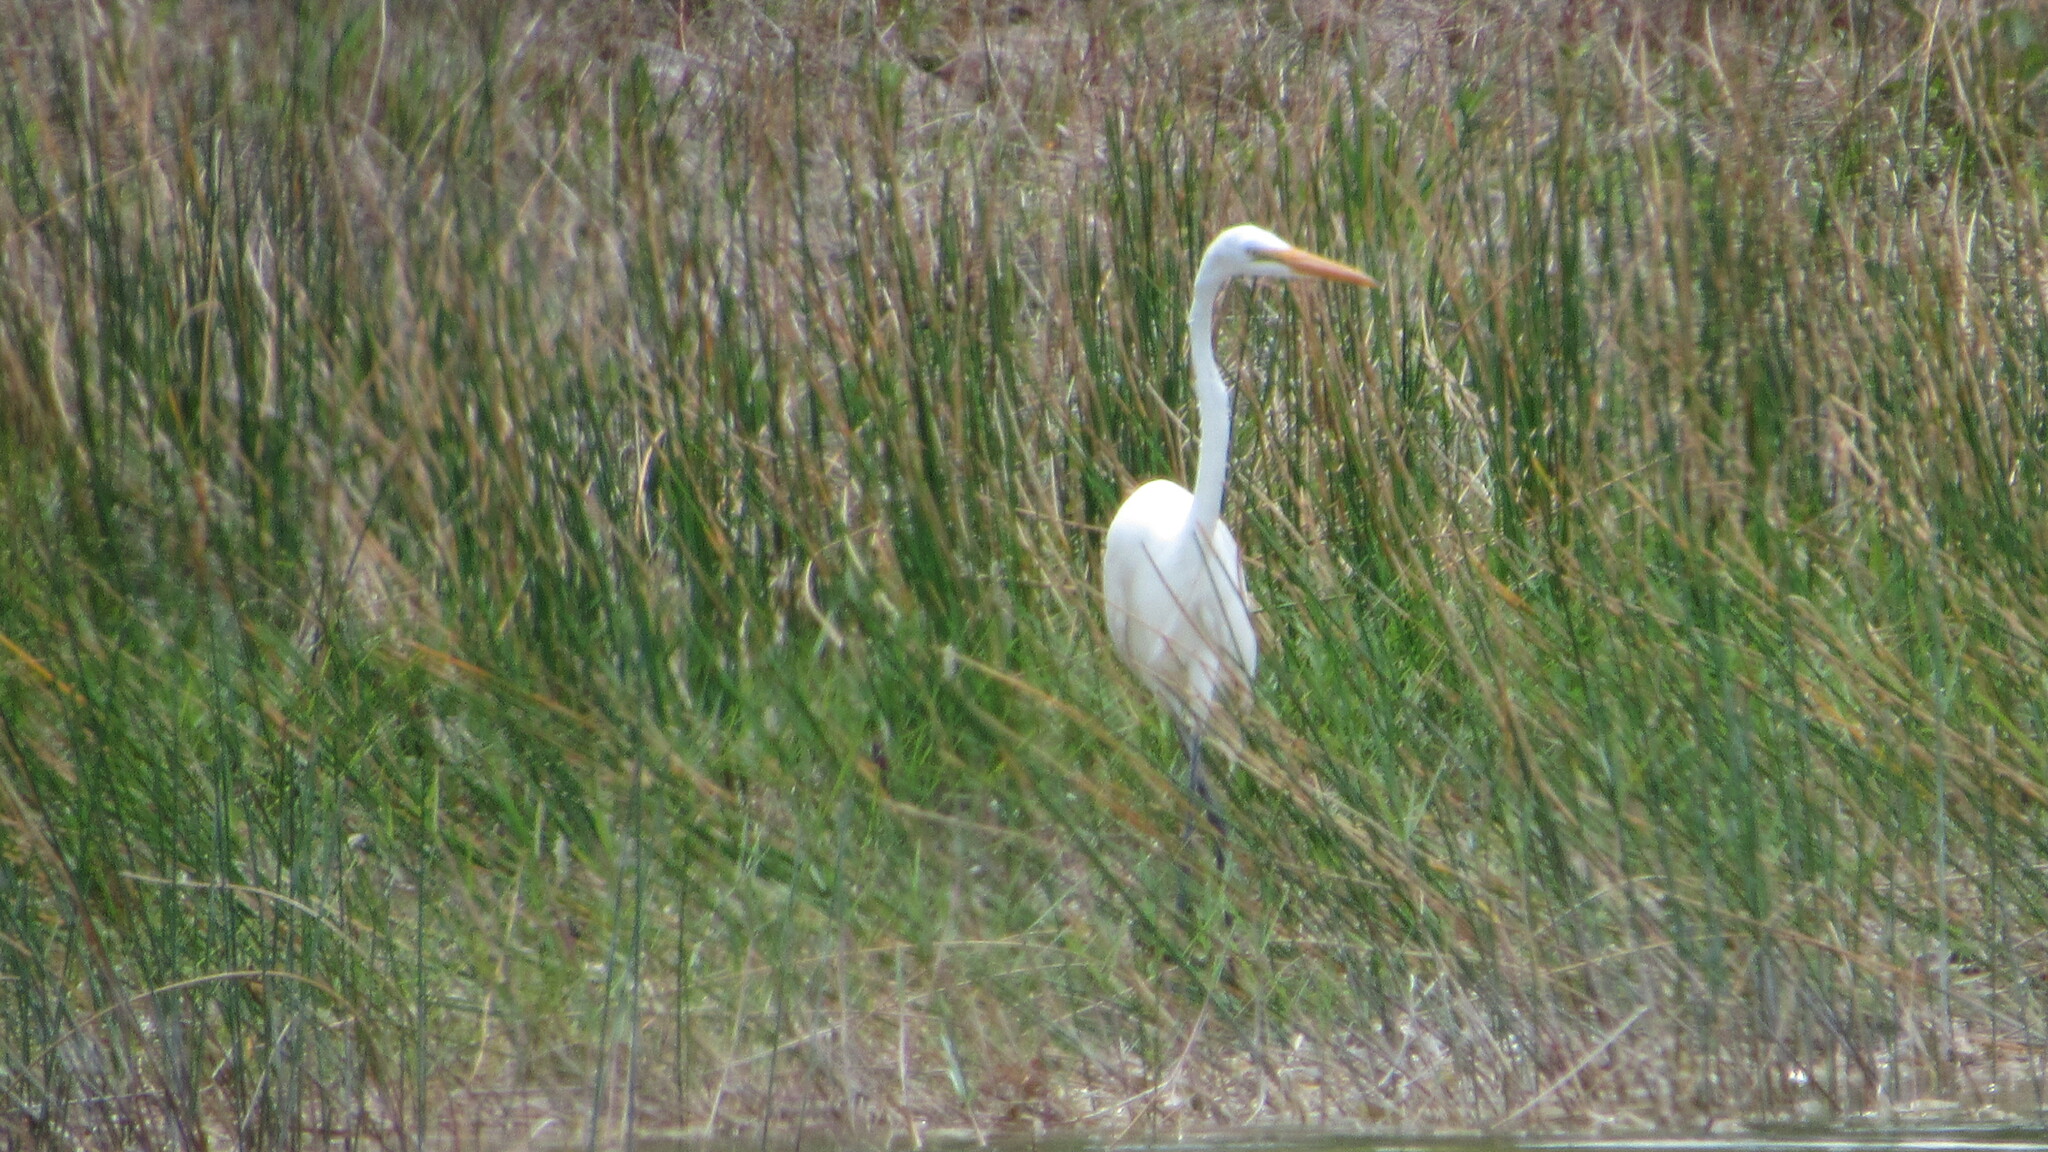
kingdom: Animalia
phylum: Chordata
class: Aves
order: Pelecaniformes
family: Ardeidae
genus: Ardea
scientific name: Ardea alba
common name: Great egret
